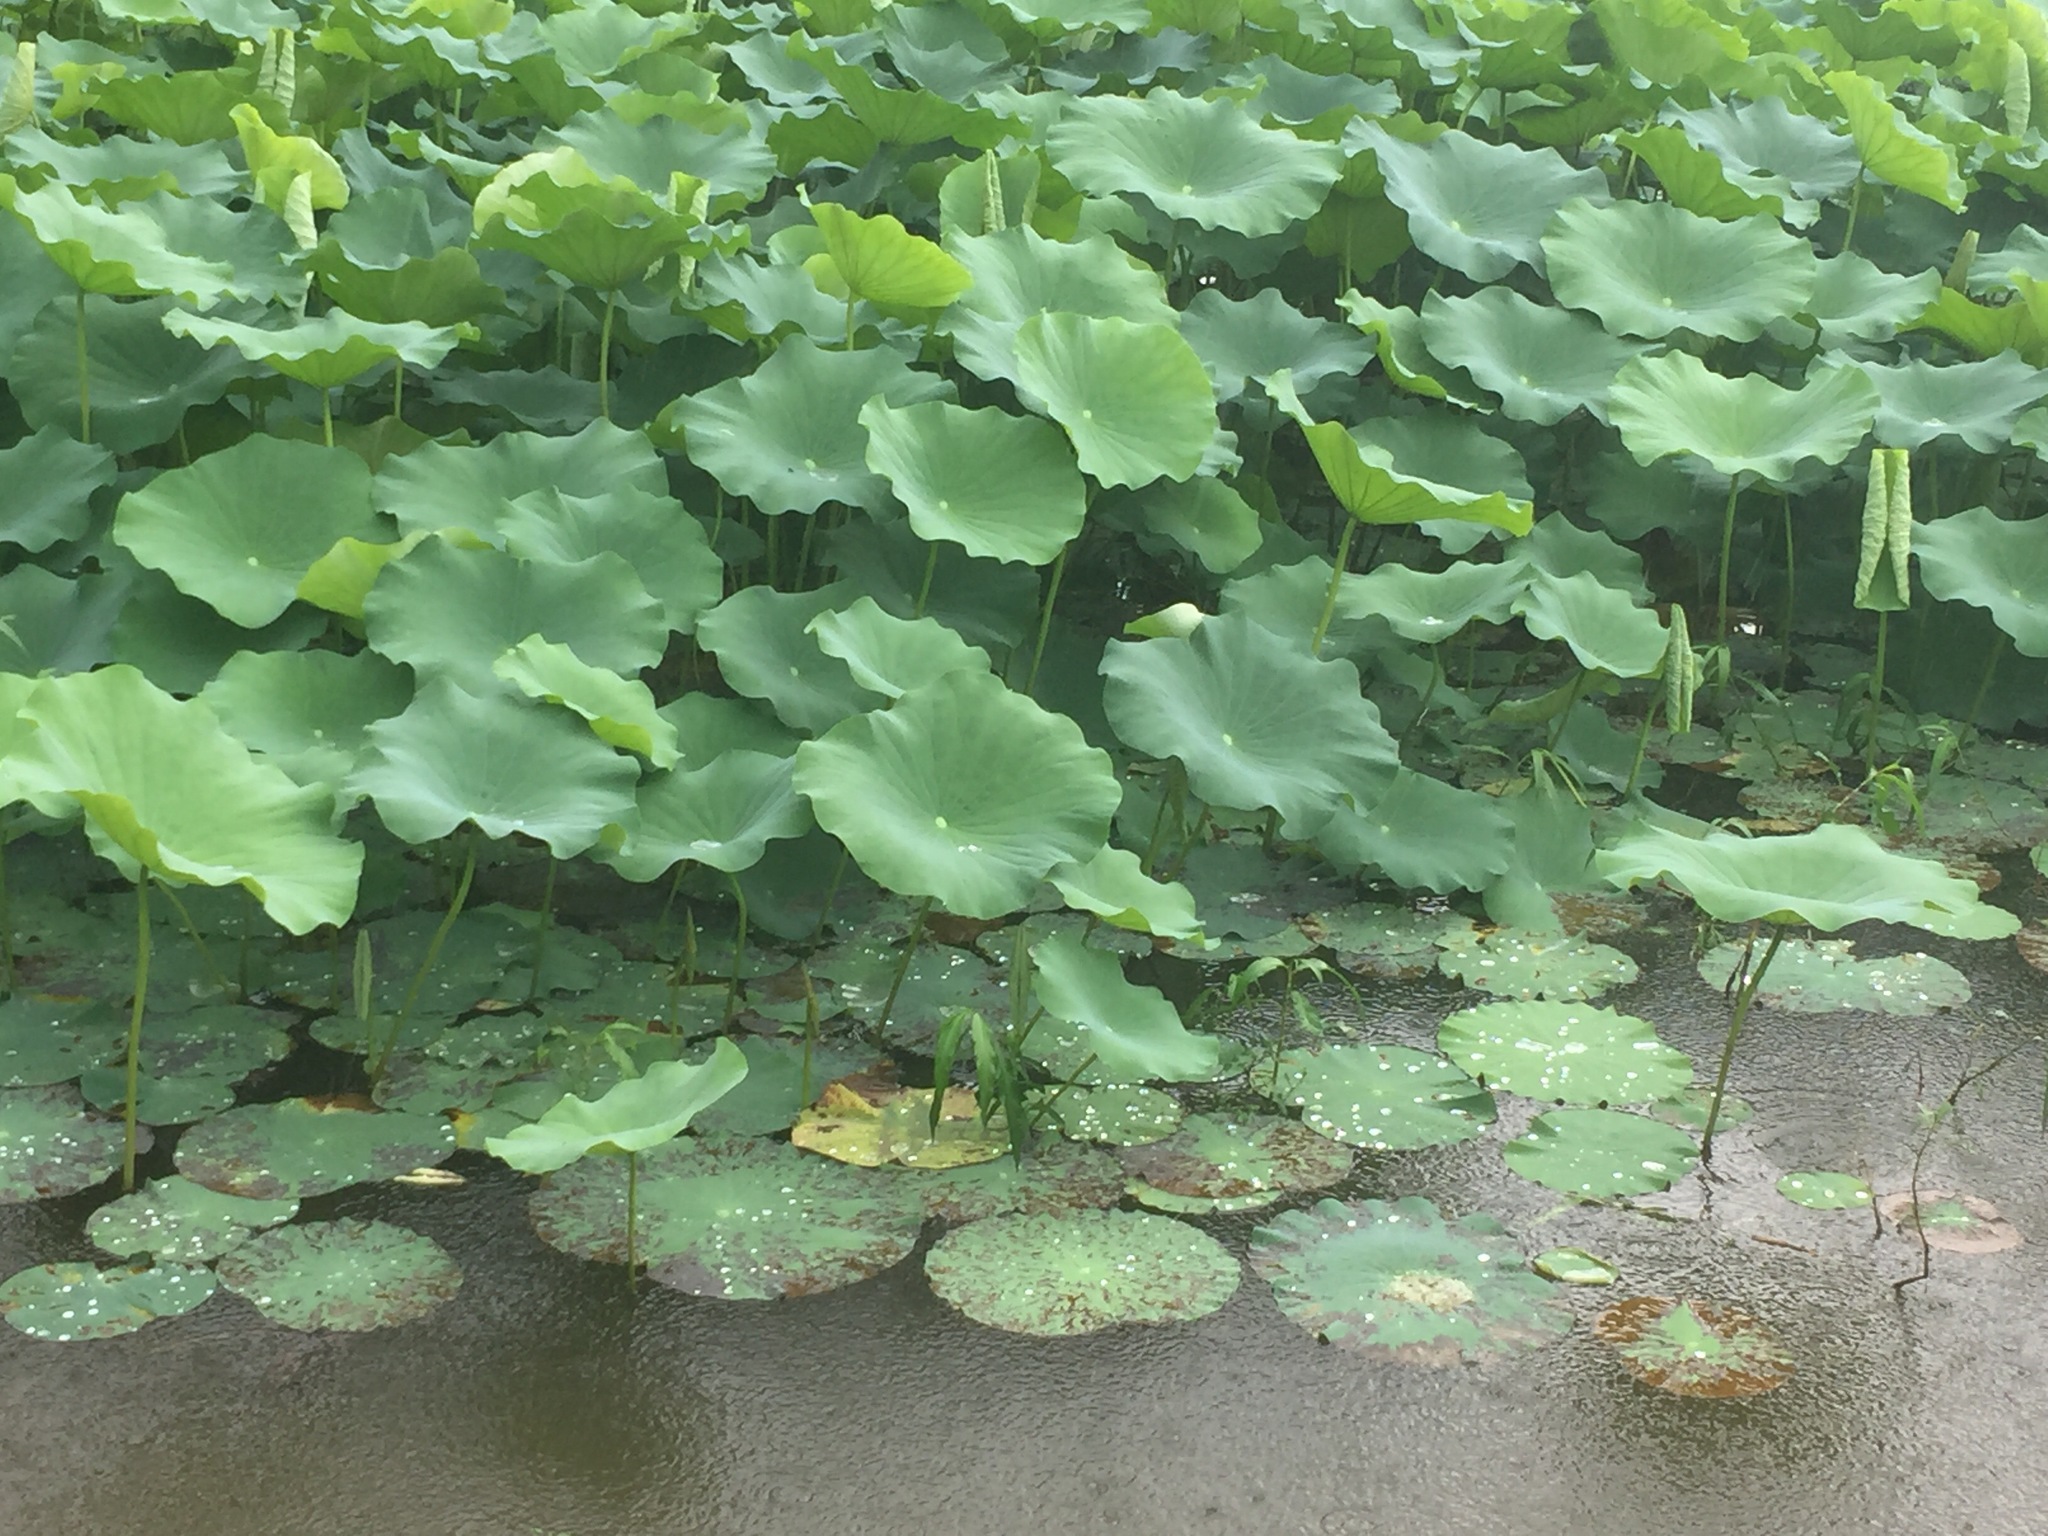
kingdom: Plantae
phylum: Tracheophyta
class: Magnoliopsida
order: Proteales
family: Nelumbonaceae
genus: Nelumbo
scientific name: Nelumbo nucifera
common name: Sacred lotus
